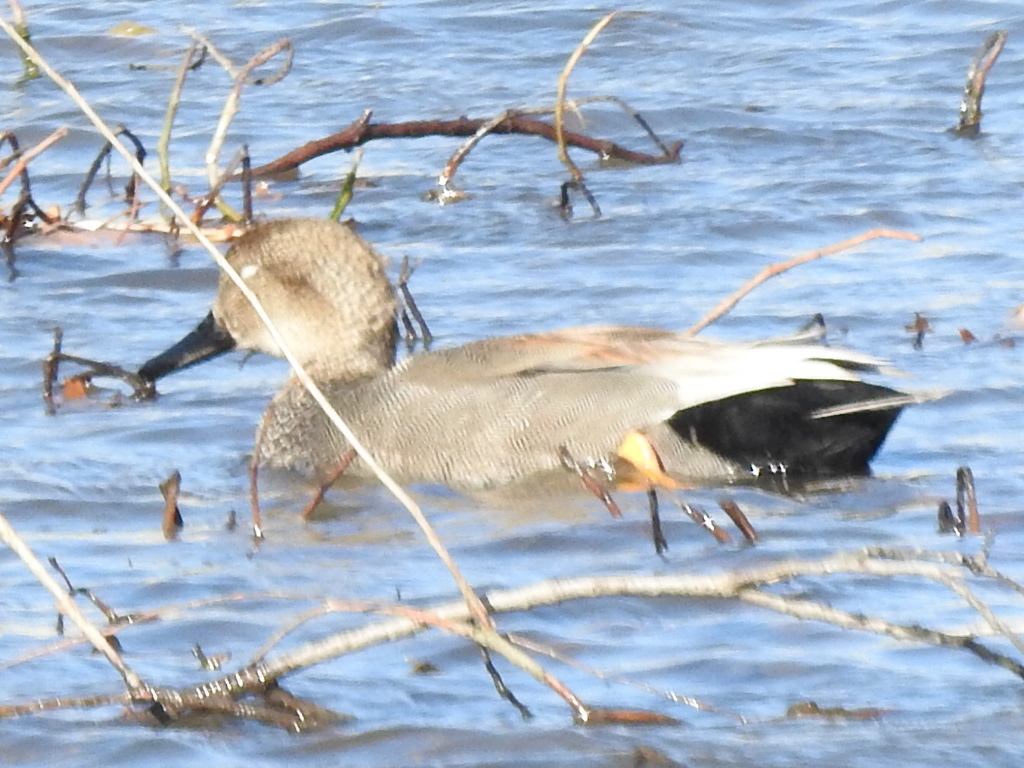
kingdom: Animalia
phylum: Chordata
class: Aves
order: Anseriformes
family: Anatidae
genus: Mareca
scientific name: Mareca strepera
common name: Gadwall
